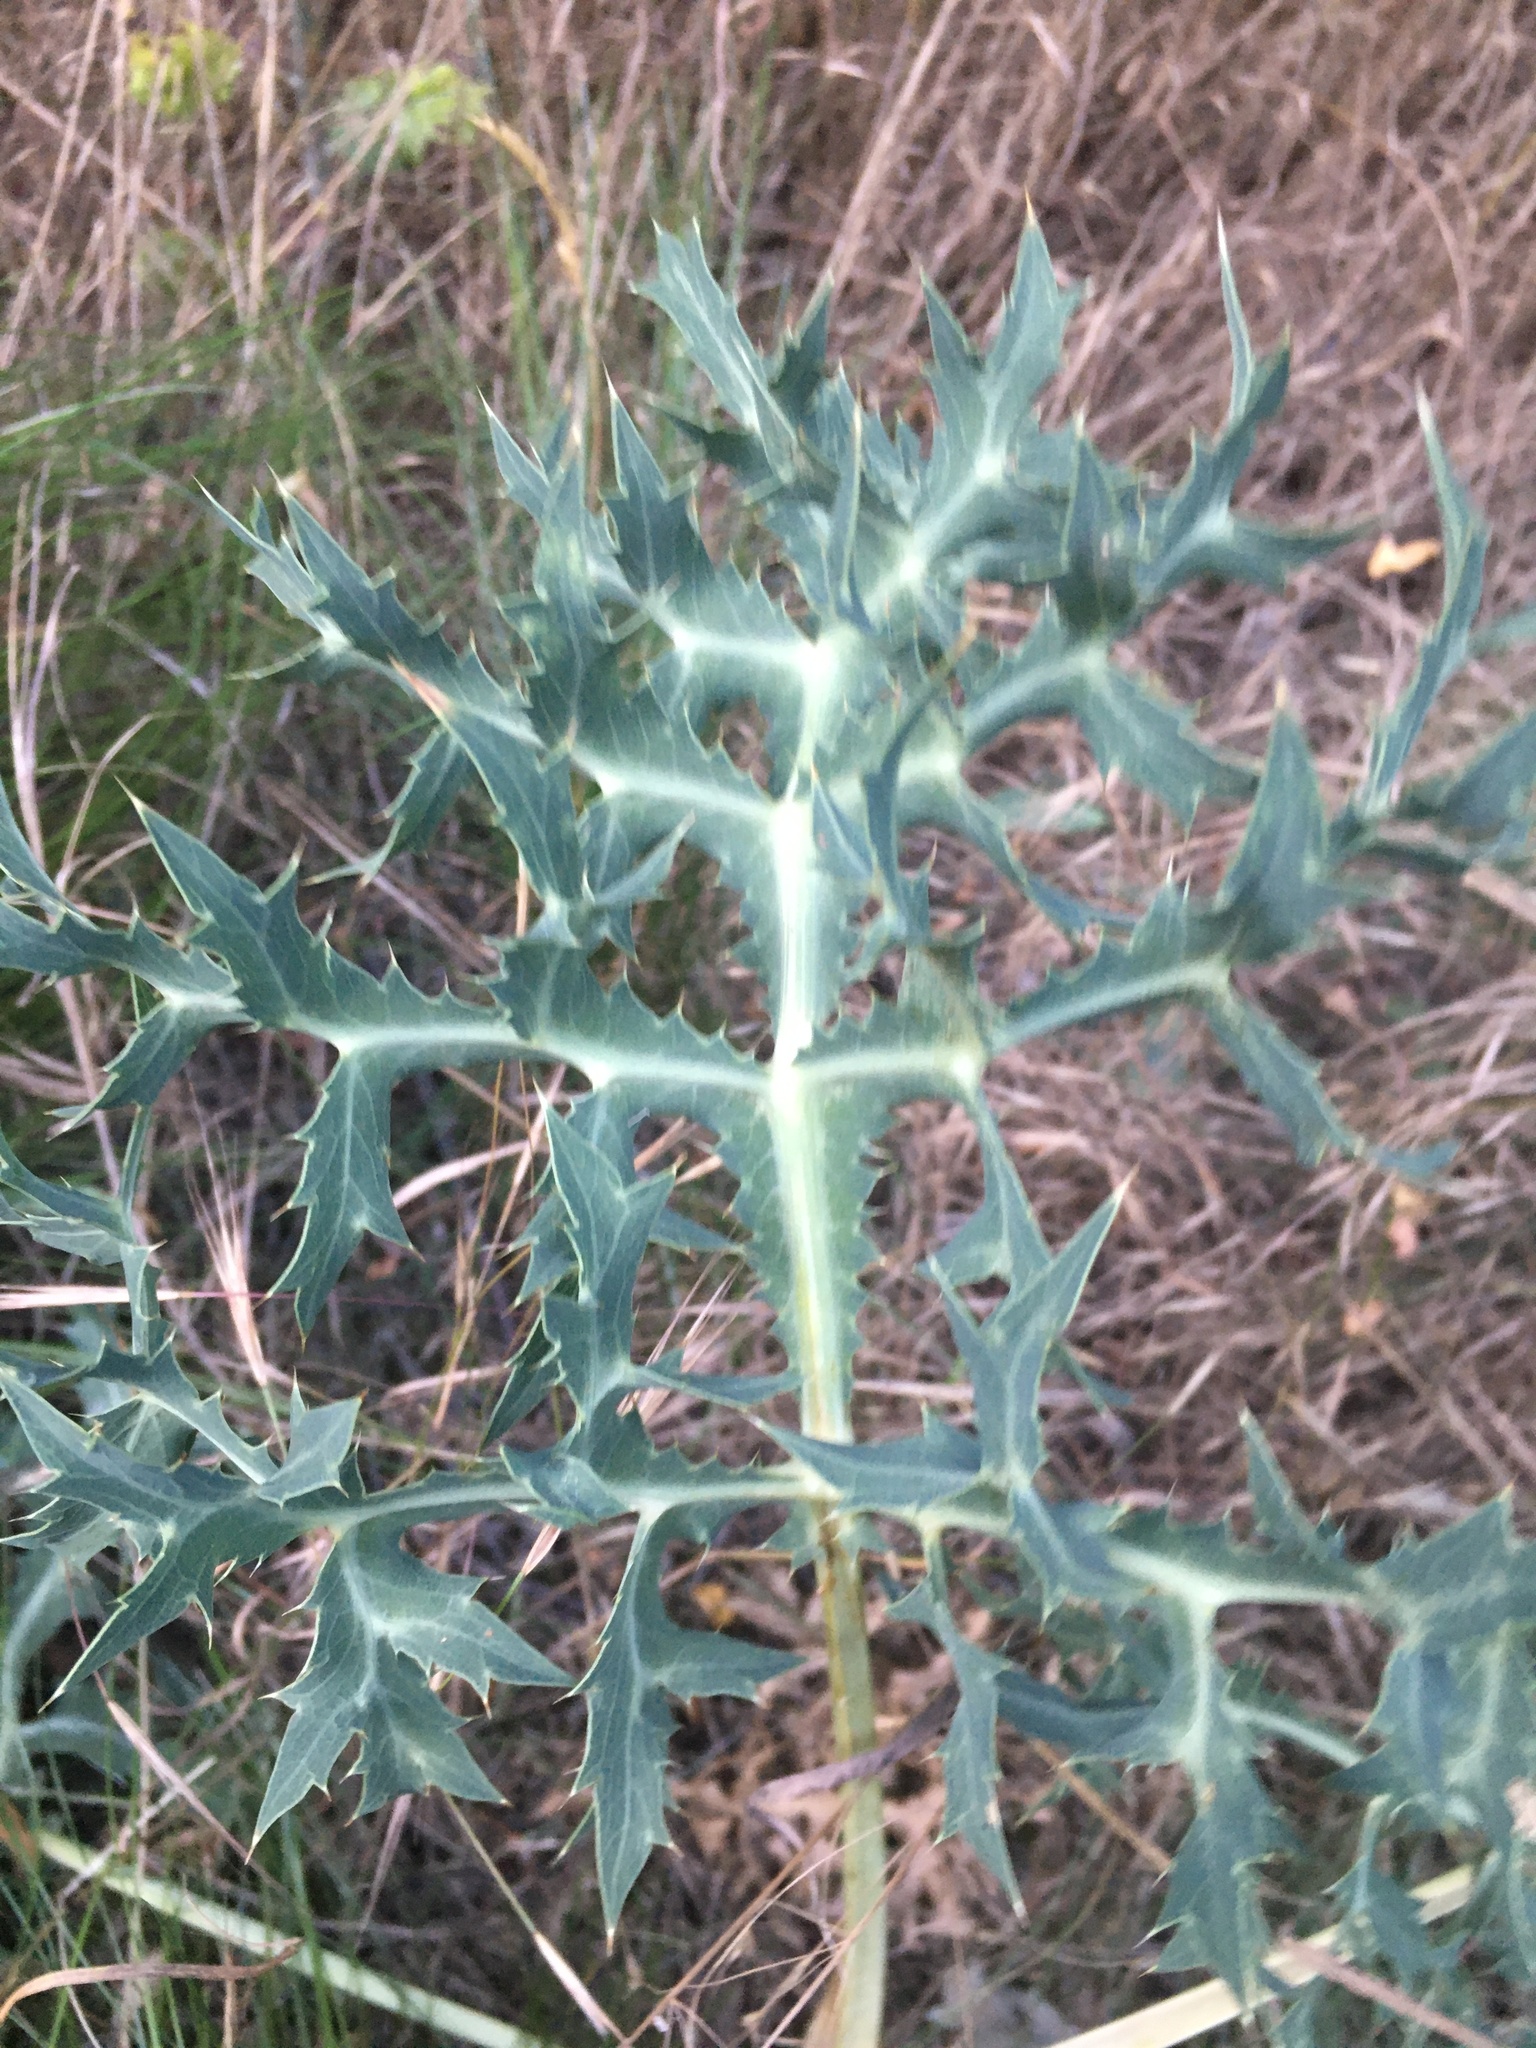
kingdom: Plantae
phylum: Tracheophyta
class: Magnoliopsida
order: Apiales
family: Apiaceae
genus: Eryngium
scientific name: Eryngium campestre
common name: Field eryngo
